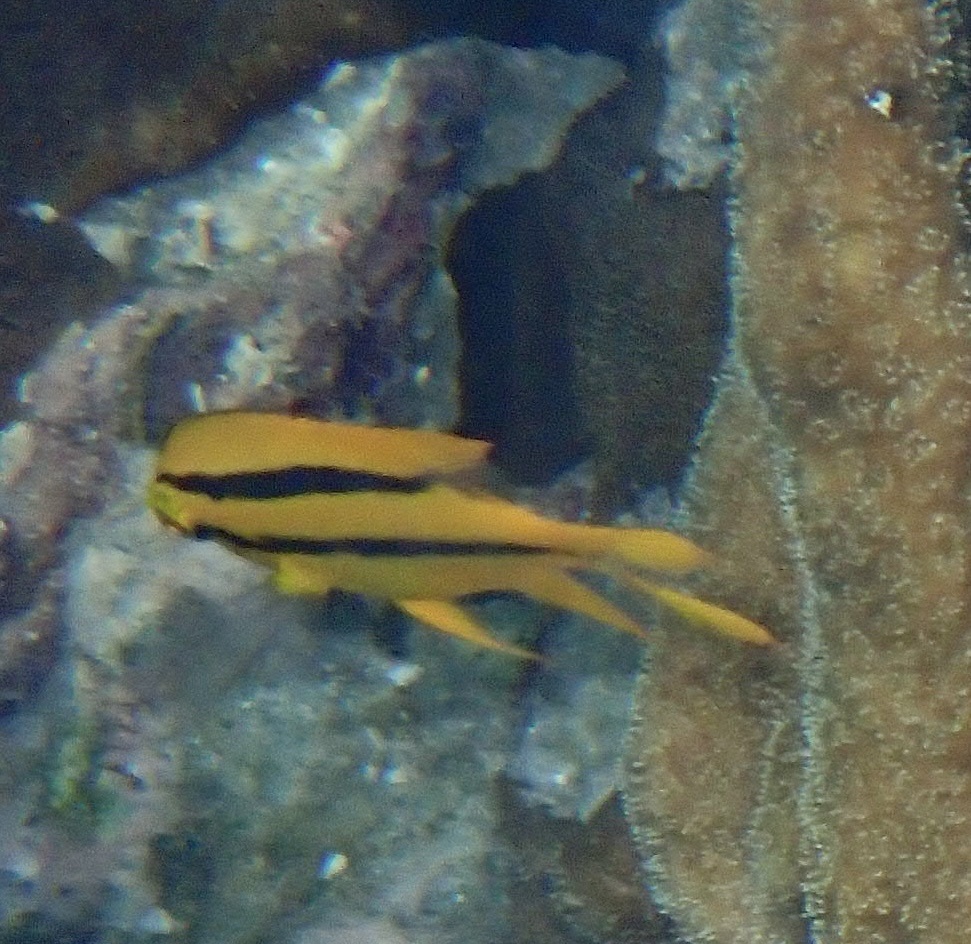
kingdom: Animalia
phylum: Chordata
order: Perciformes
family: Pomacentridae
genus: Neoglyphidodon
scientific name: Neoglyphidodon nigroris
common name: Behn's damsel
